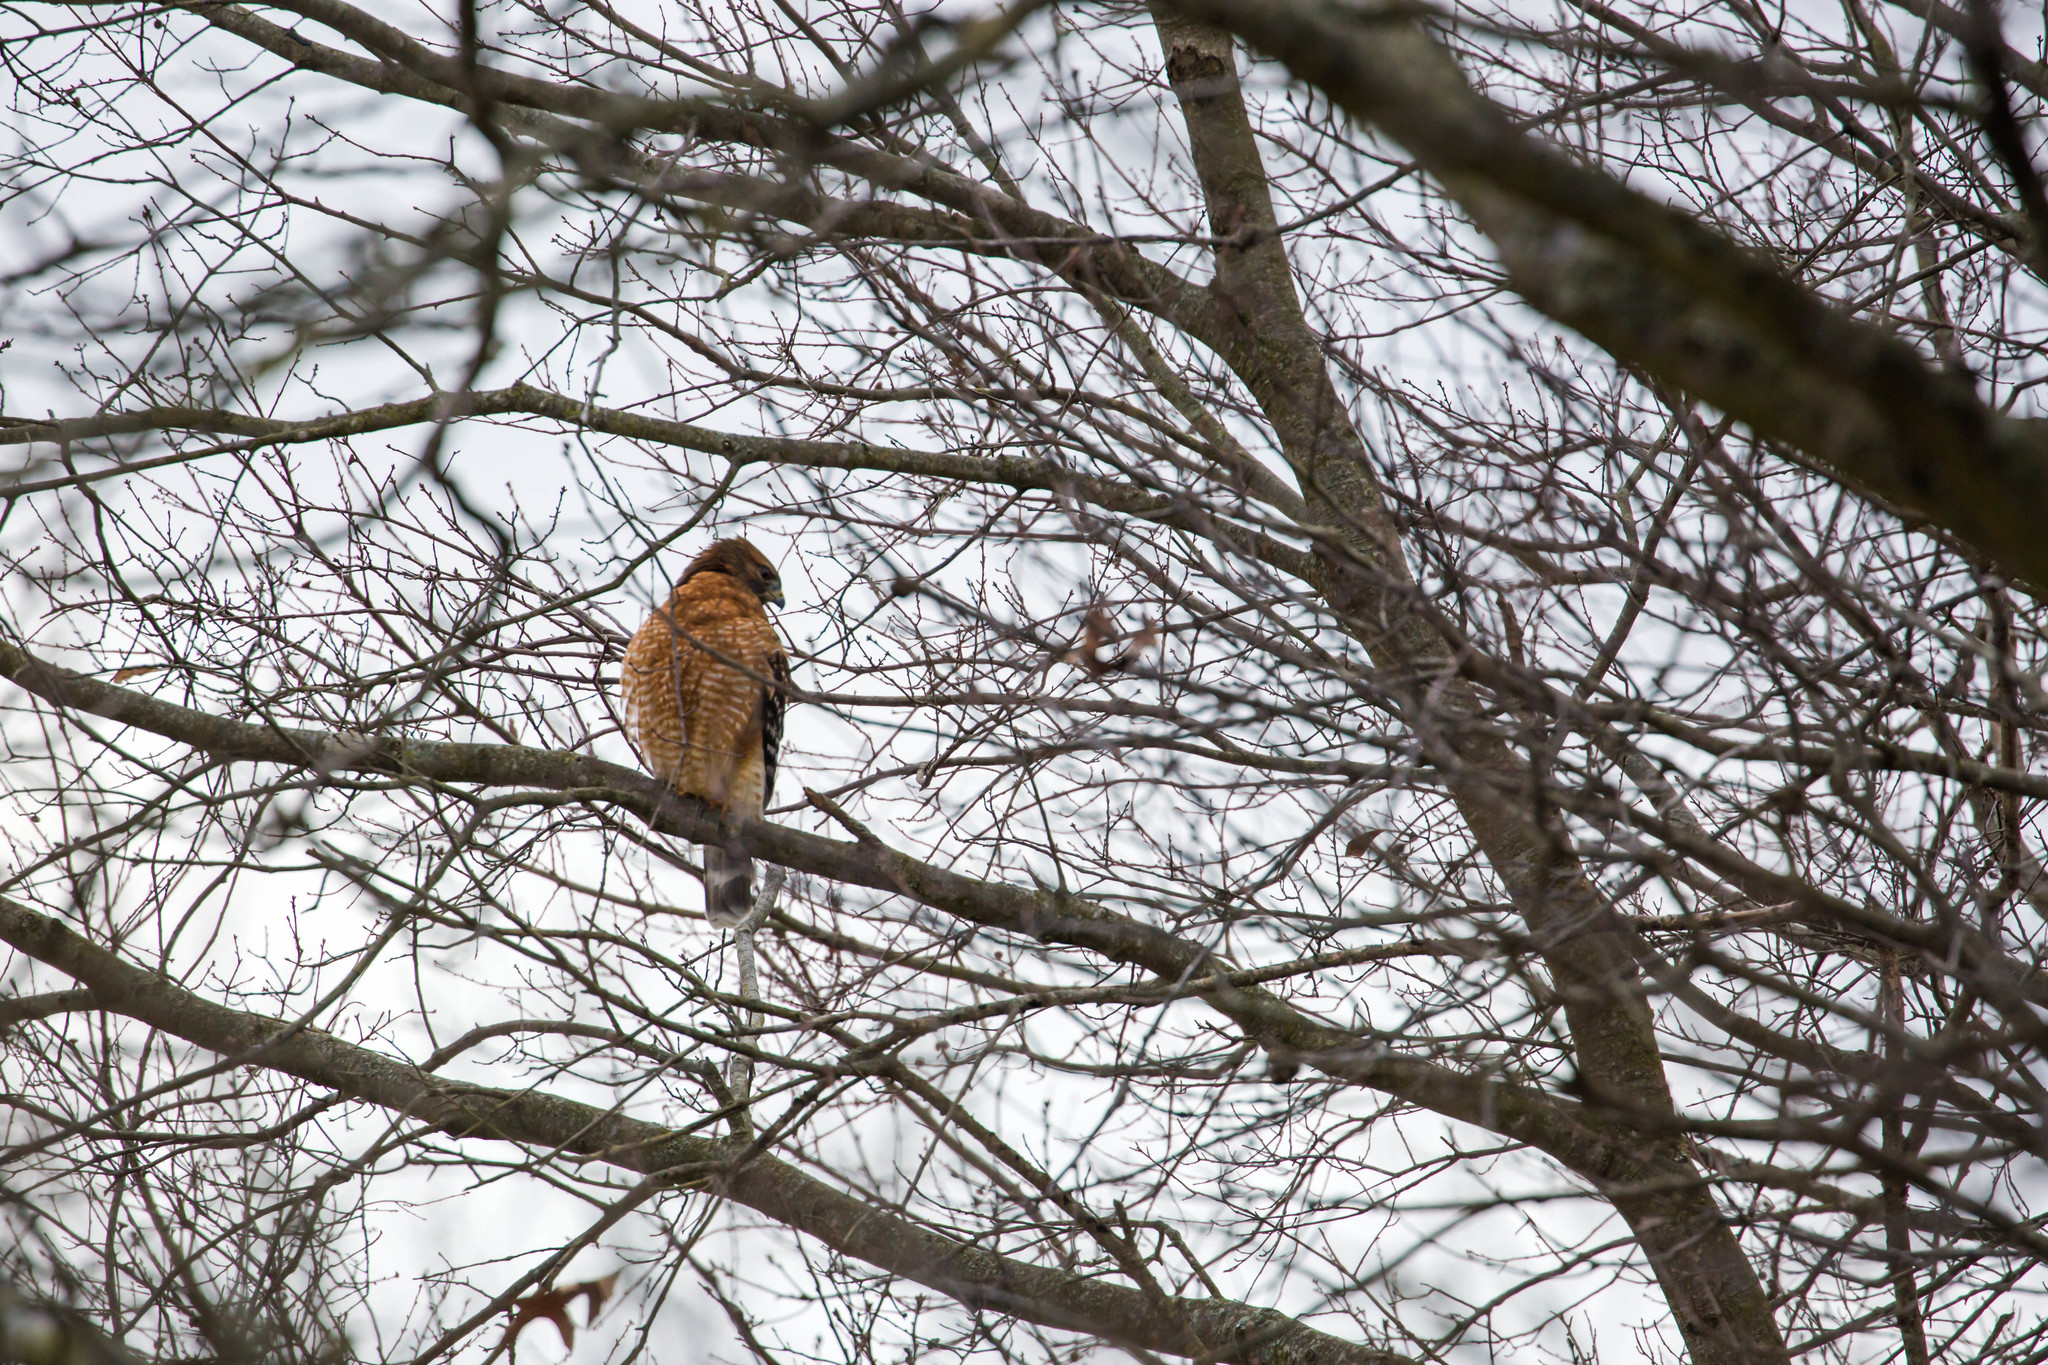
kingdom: Animalia
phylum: Chordata
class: Aves
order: Accipitriformes
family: Accipitridae
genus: Buteo
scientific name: Buteo lineatus
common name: Red-shouldered hawk
